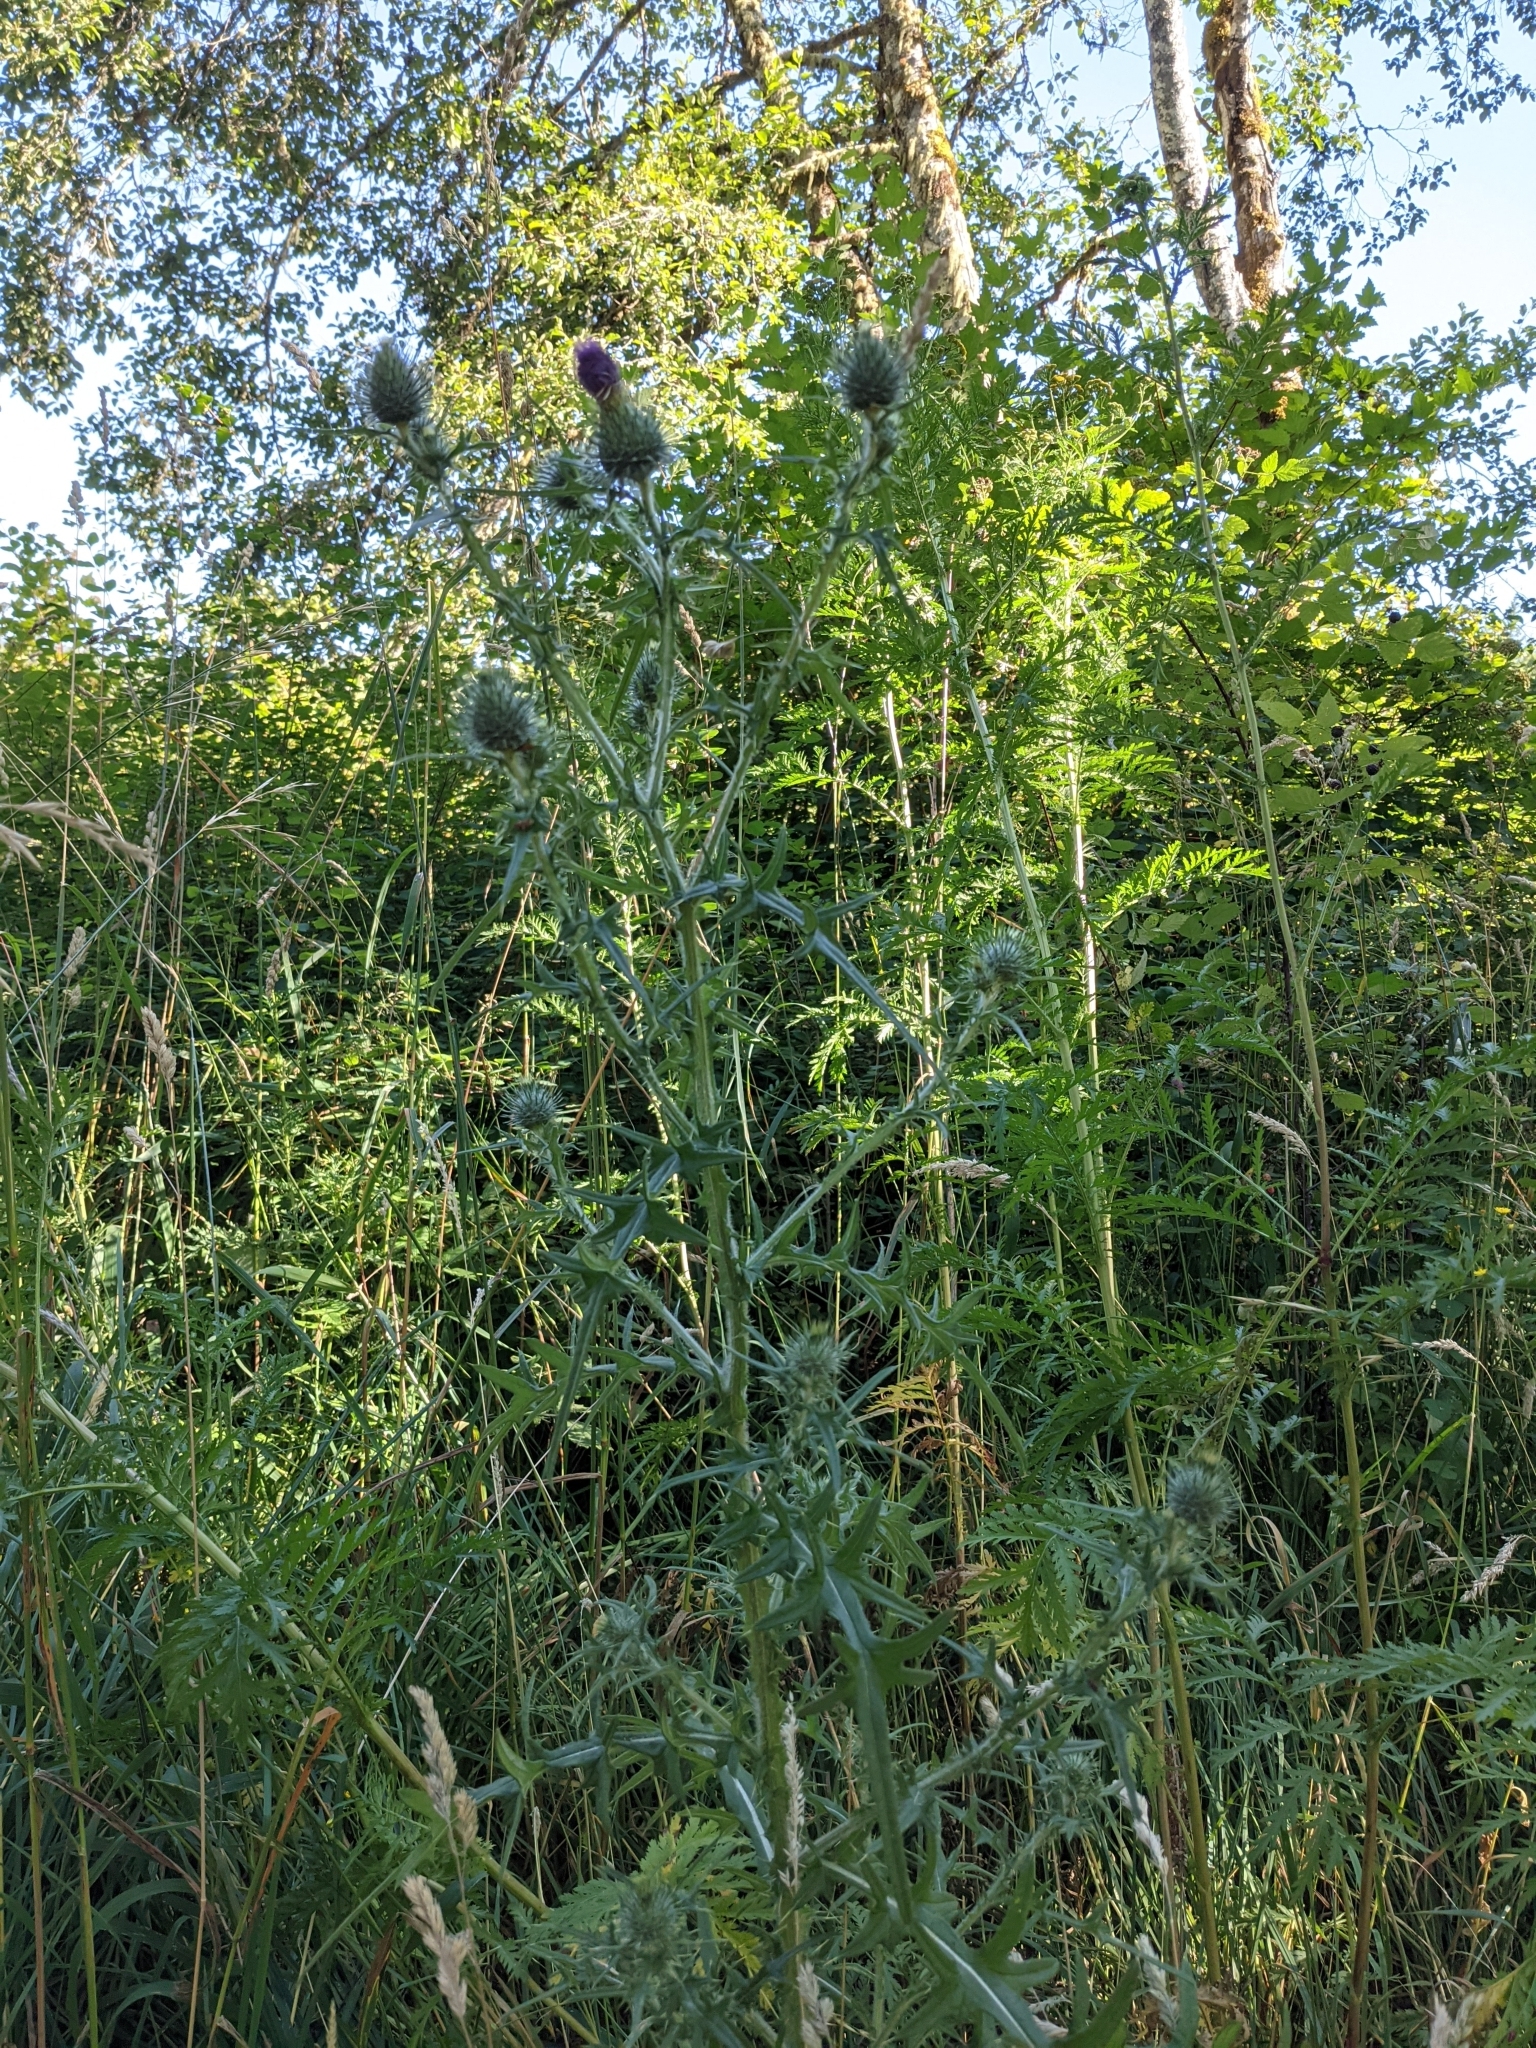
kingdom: Plantae
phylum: Tracheophyta
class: Magnoliopsida
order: Asterales
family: Asteraceae
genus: Cirsium
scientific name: Cirsium vulgare
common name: Bull thistle
